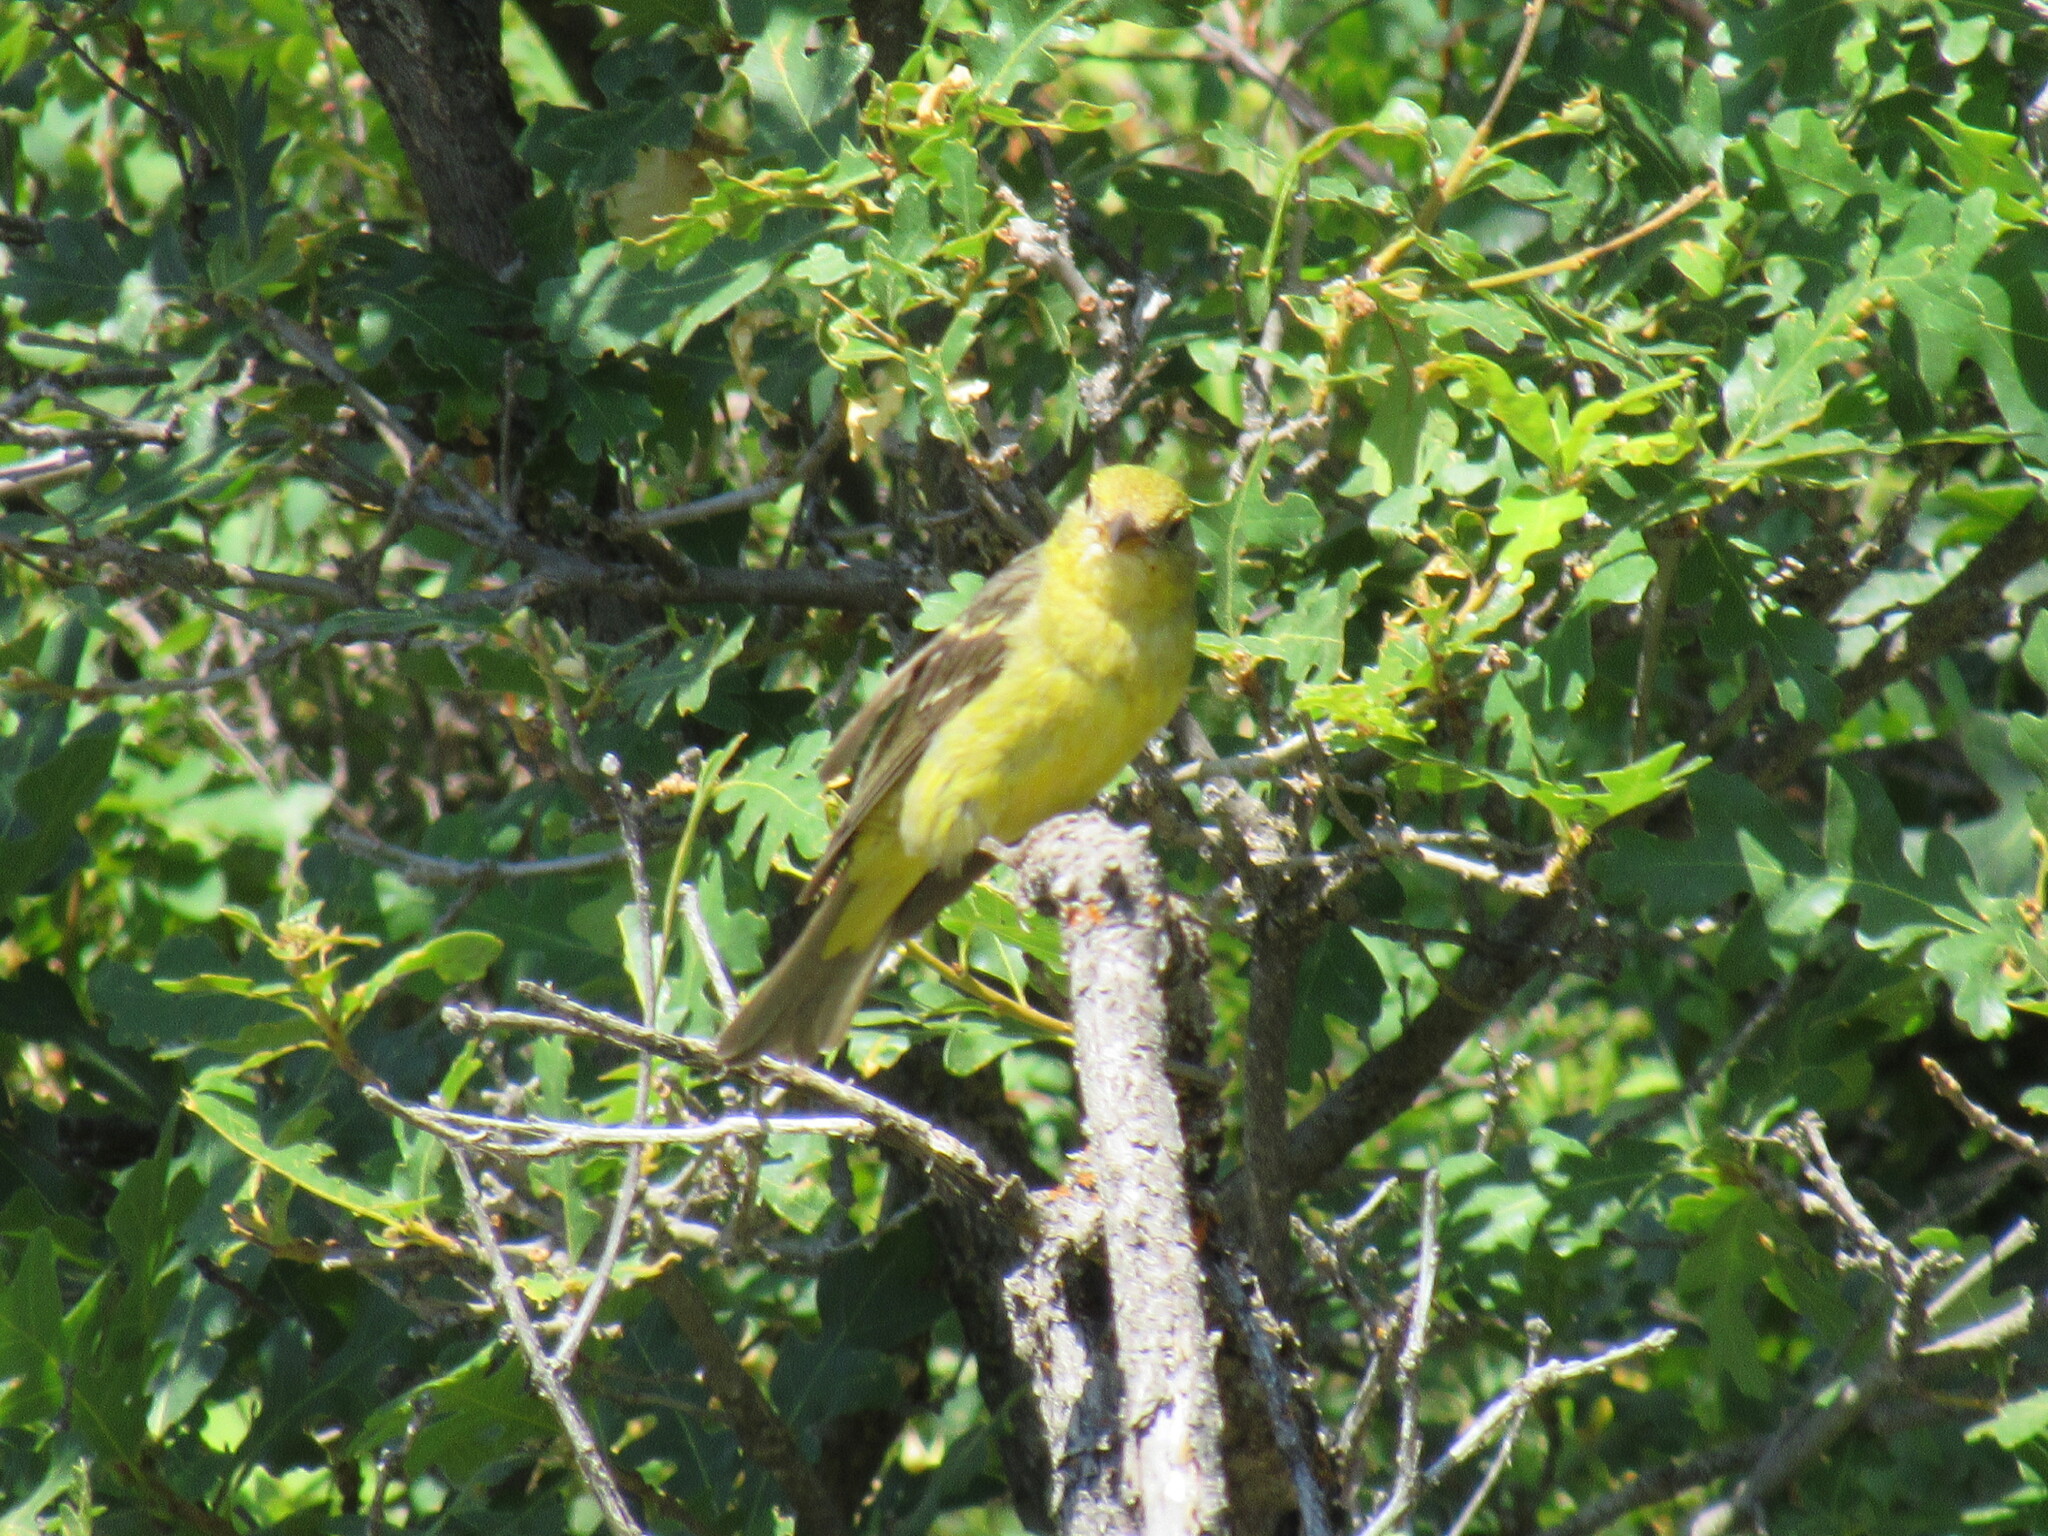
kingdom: Animalia
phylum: Chordata
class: Aves
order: Passeriformes
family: Cardinalidae
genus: Piranga
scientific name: Piranga ludoviciana
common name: Western tanager
